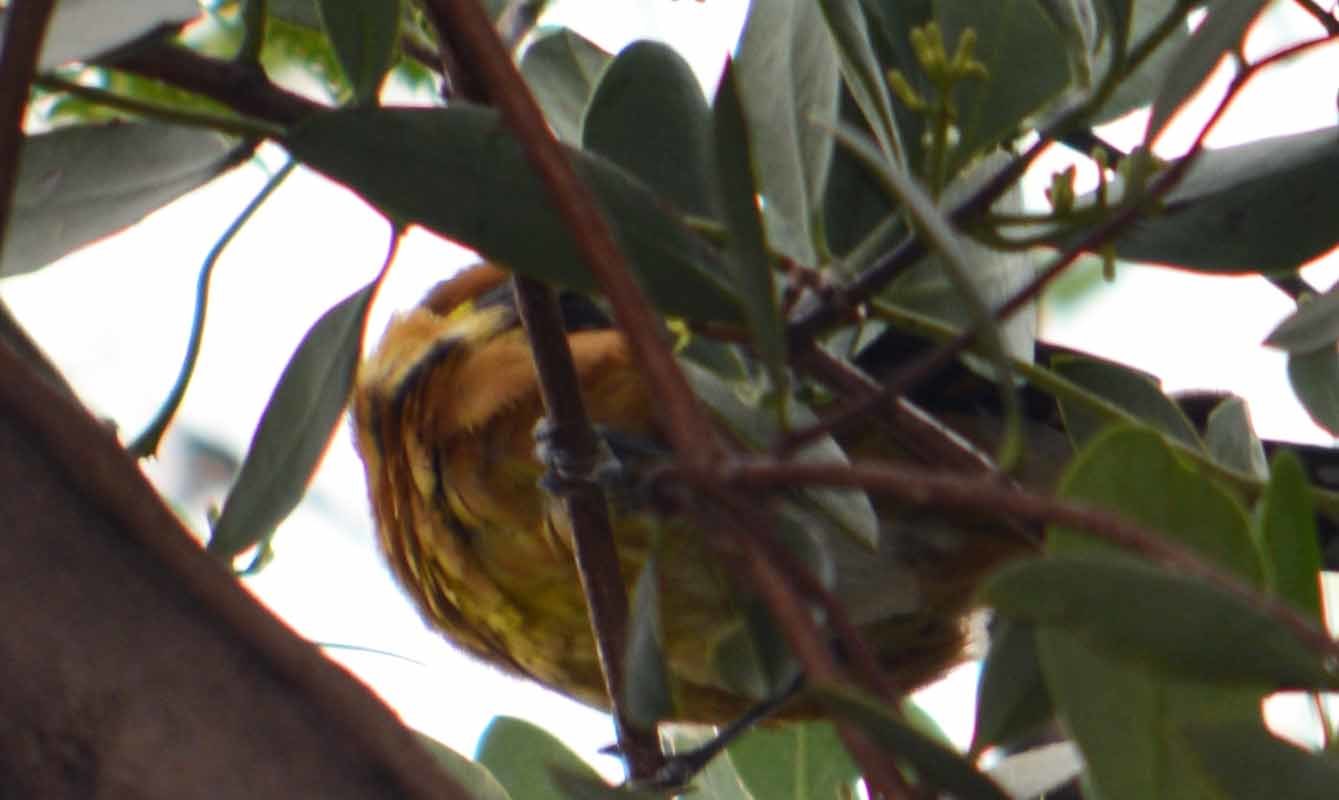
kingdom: Animalia
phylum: Chordata
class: Aves
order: Passeriformes
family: Cardinalidae
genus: Pheucticus
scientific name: Pheucticus melanocephalus
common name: Black-headed grosbeak
